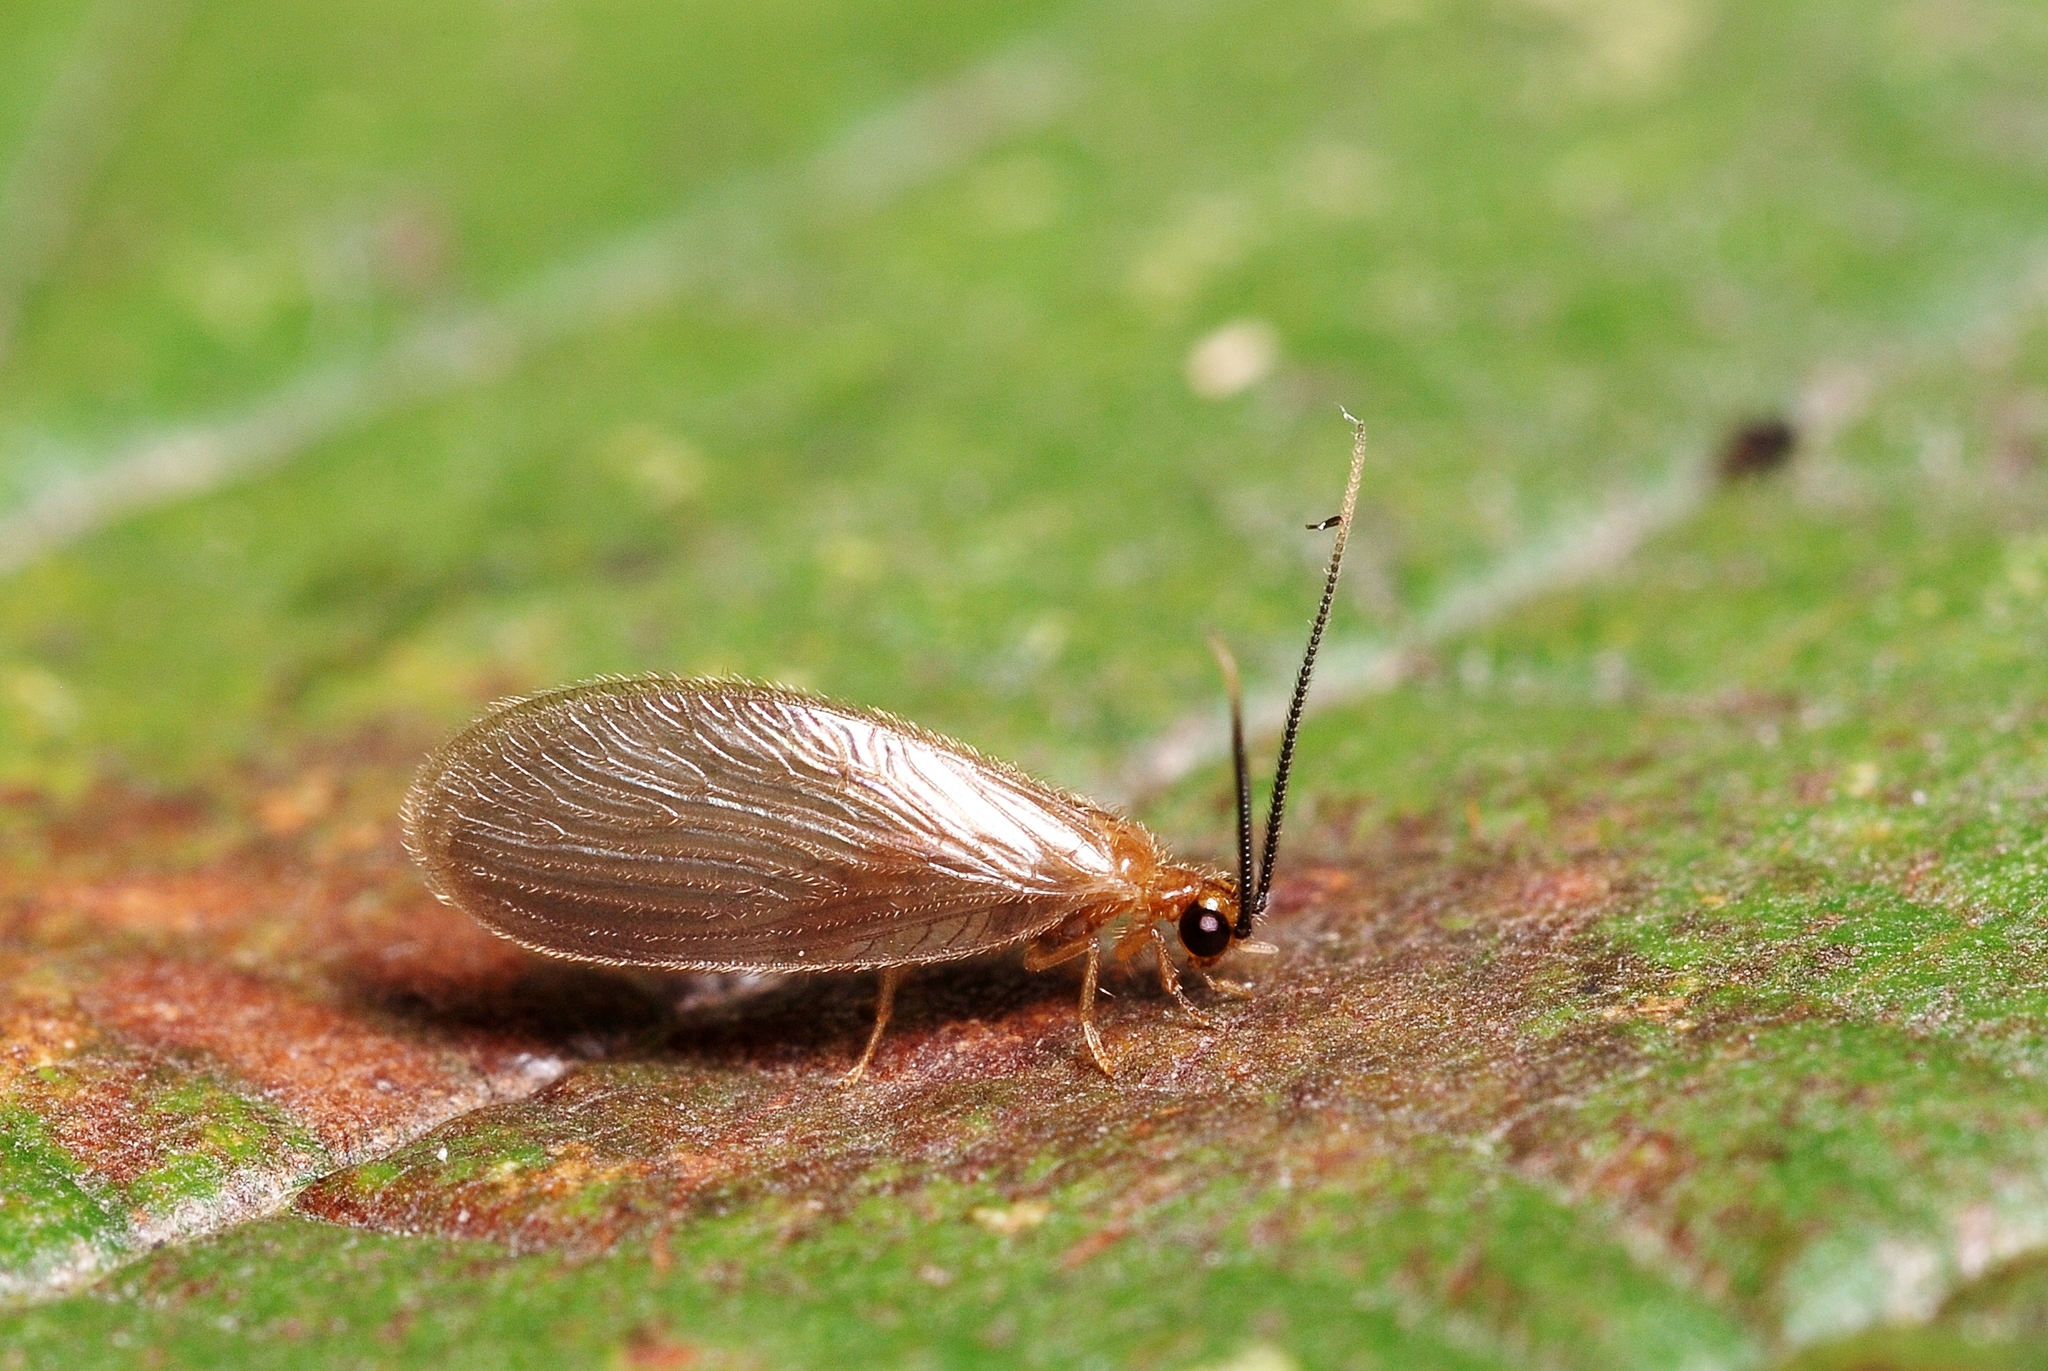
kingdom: Animalia
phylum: Arthropoda
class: Insecta
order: Neuroptera
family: Sisyridae
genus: Sisyra
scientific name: Sisyra terminalis
